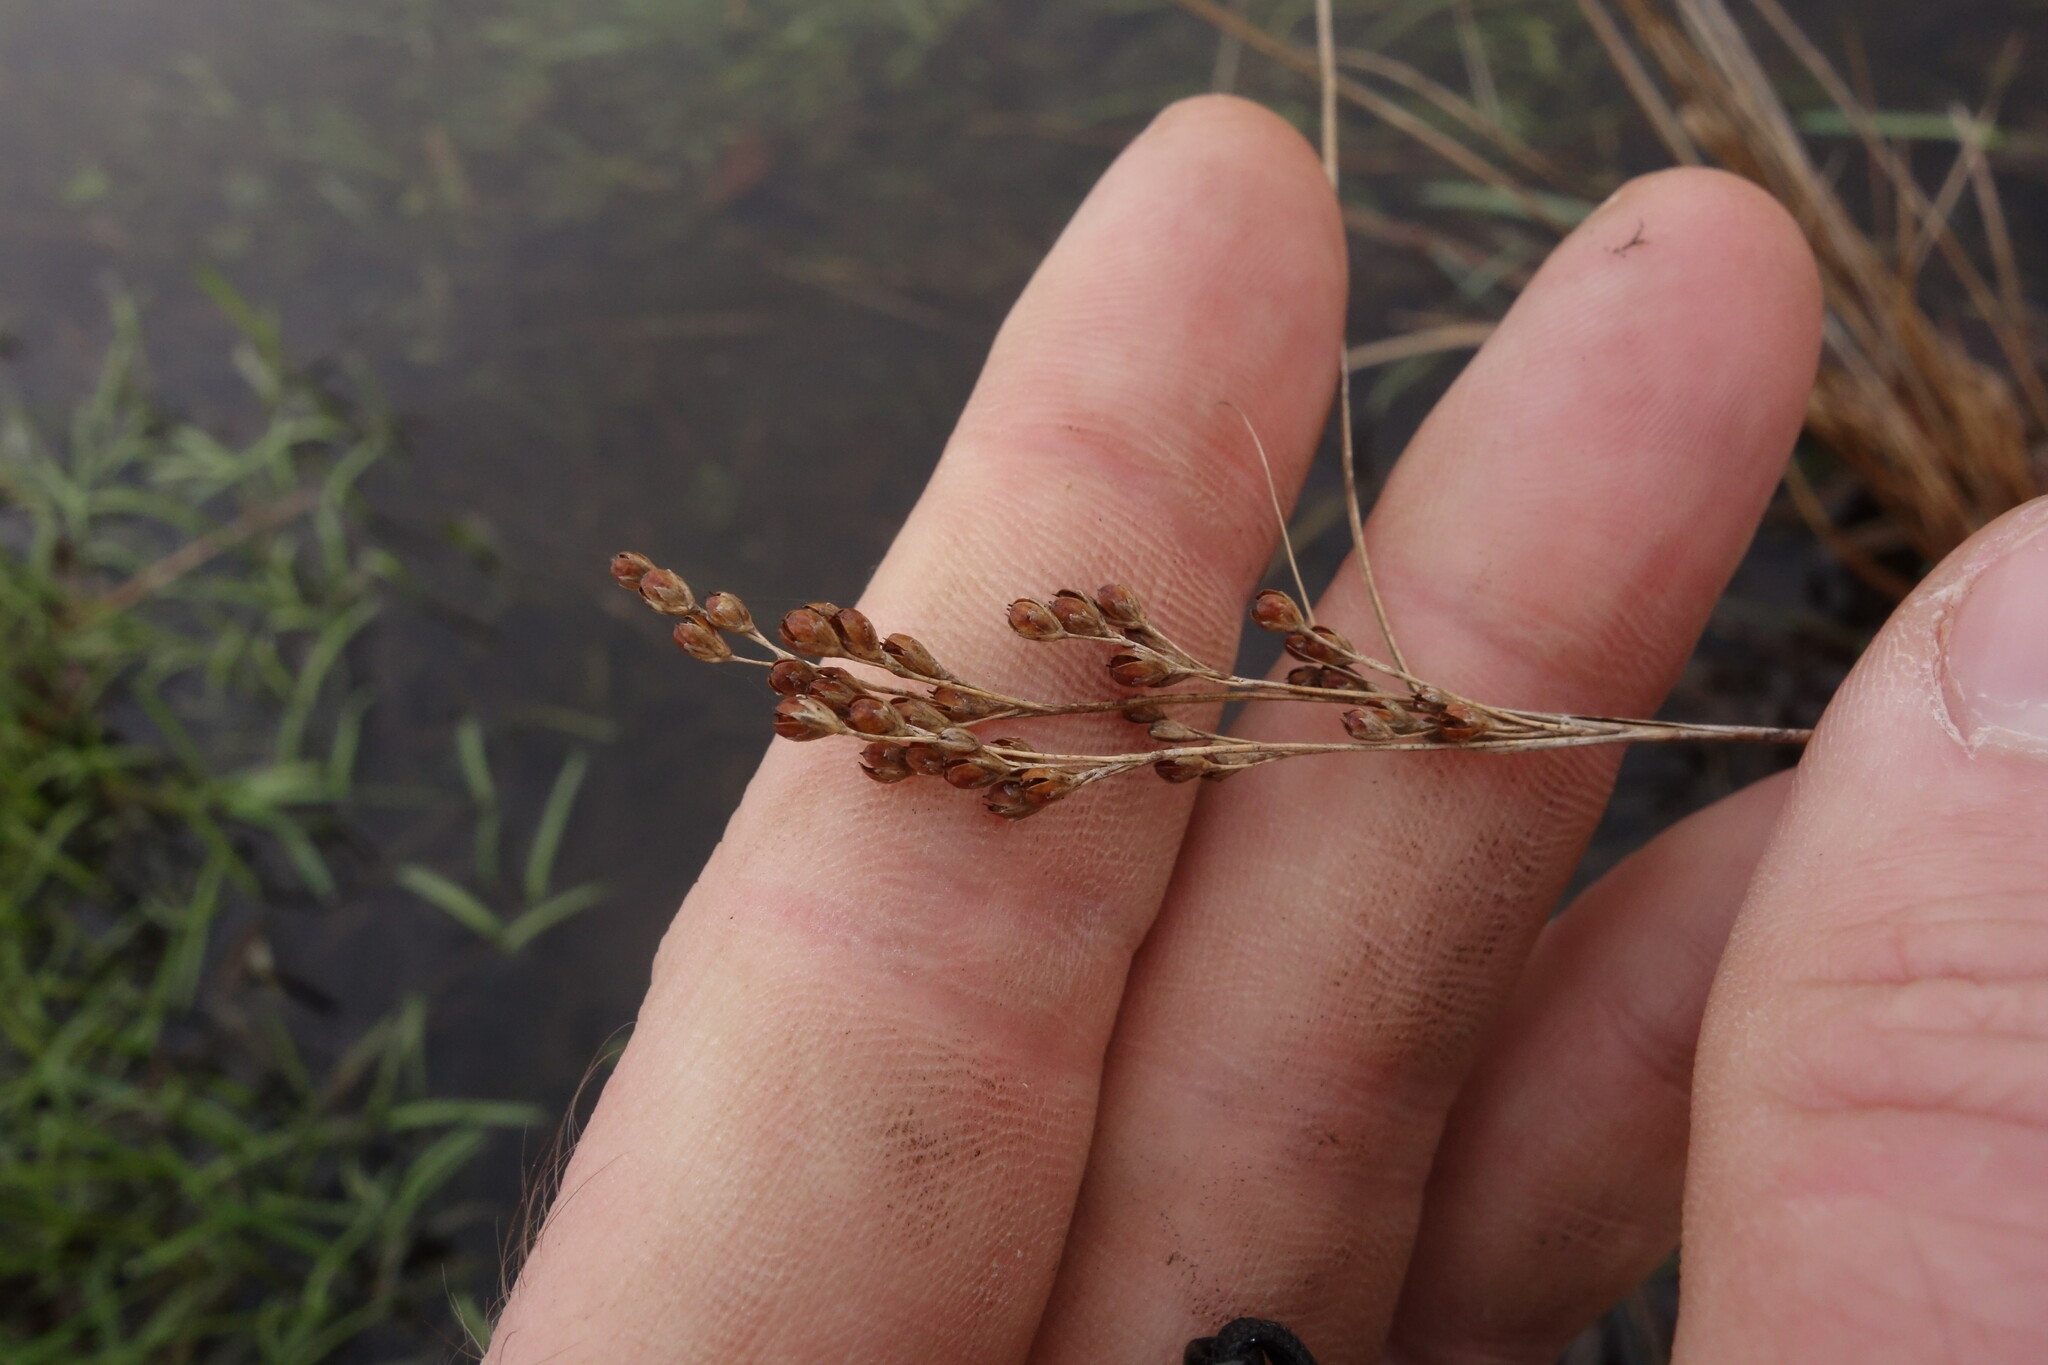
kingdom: Plantae
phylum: Tracheophyta
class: Liliopsida
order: Poales
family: Juncaceae
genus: Juncus
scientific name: Juncus compressus
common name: Round-fruited rush
